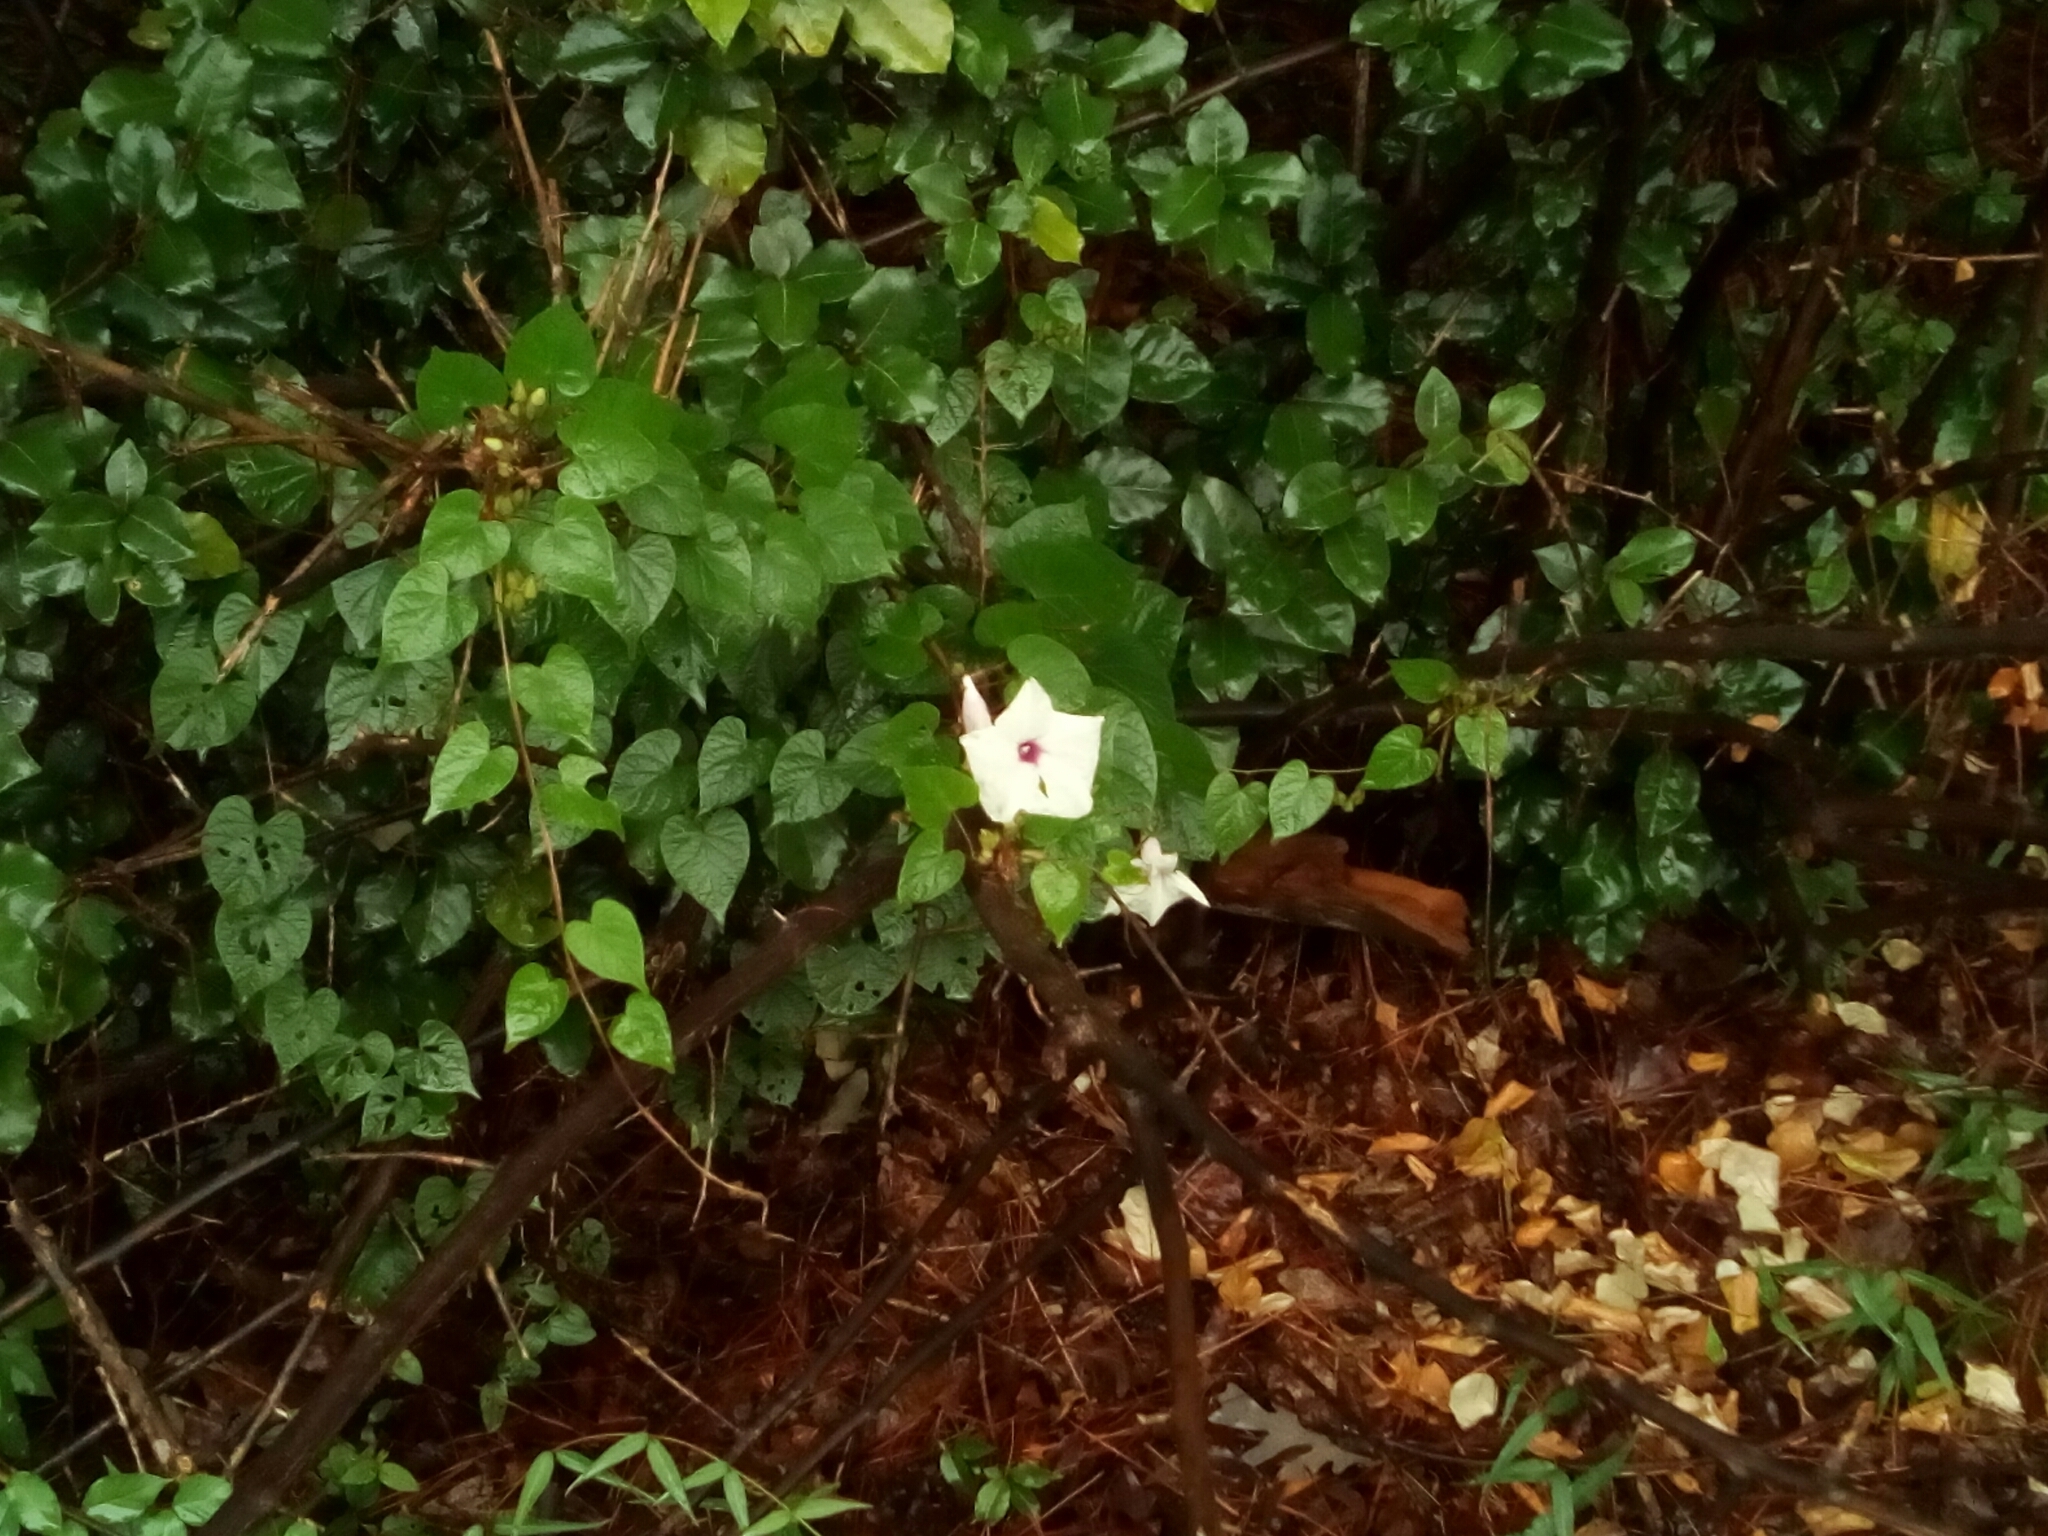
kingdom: Plantae
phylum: Tracheophyta
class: Magnoliopsida
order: Solanales
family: Convolvulaceae
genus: Ipomoea
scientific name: Ipomoea pandurata
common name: Man-of-the-earth
